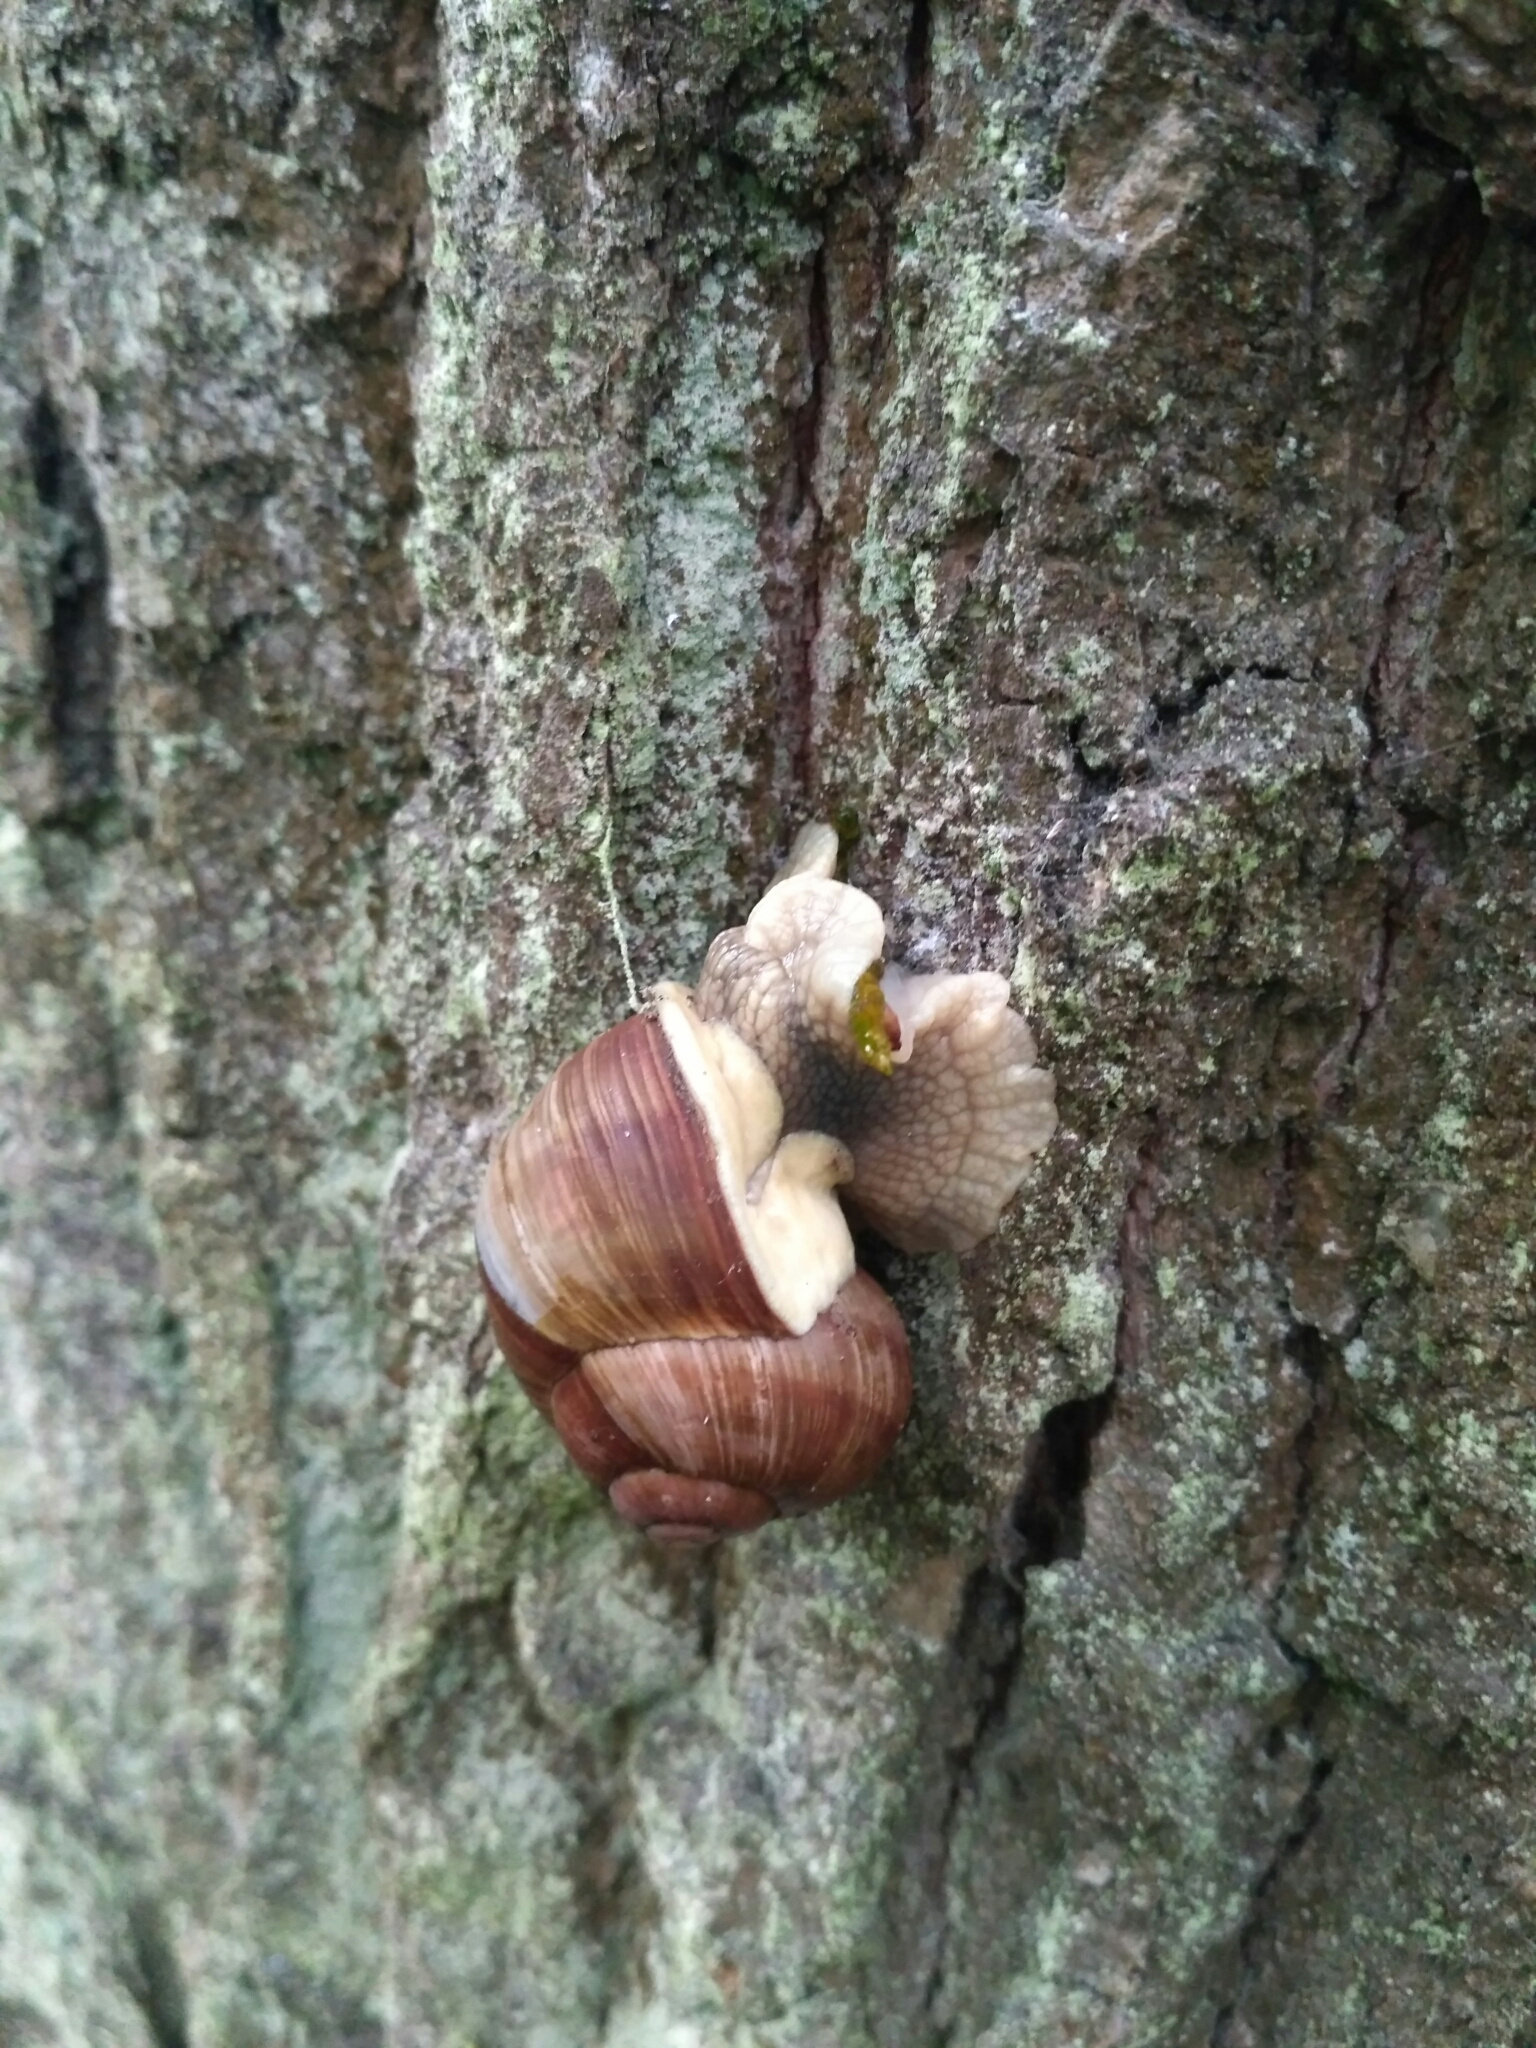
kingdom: Animalia
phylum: Mollusca
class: Gastropoda
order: Stylommatophora
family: Helicidae
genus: Helix
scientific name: Helix pomatia
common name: Roman snail
